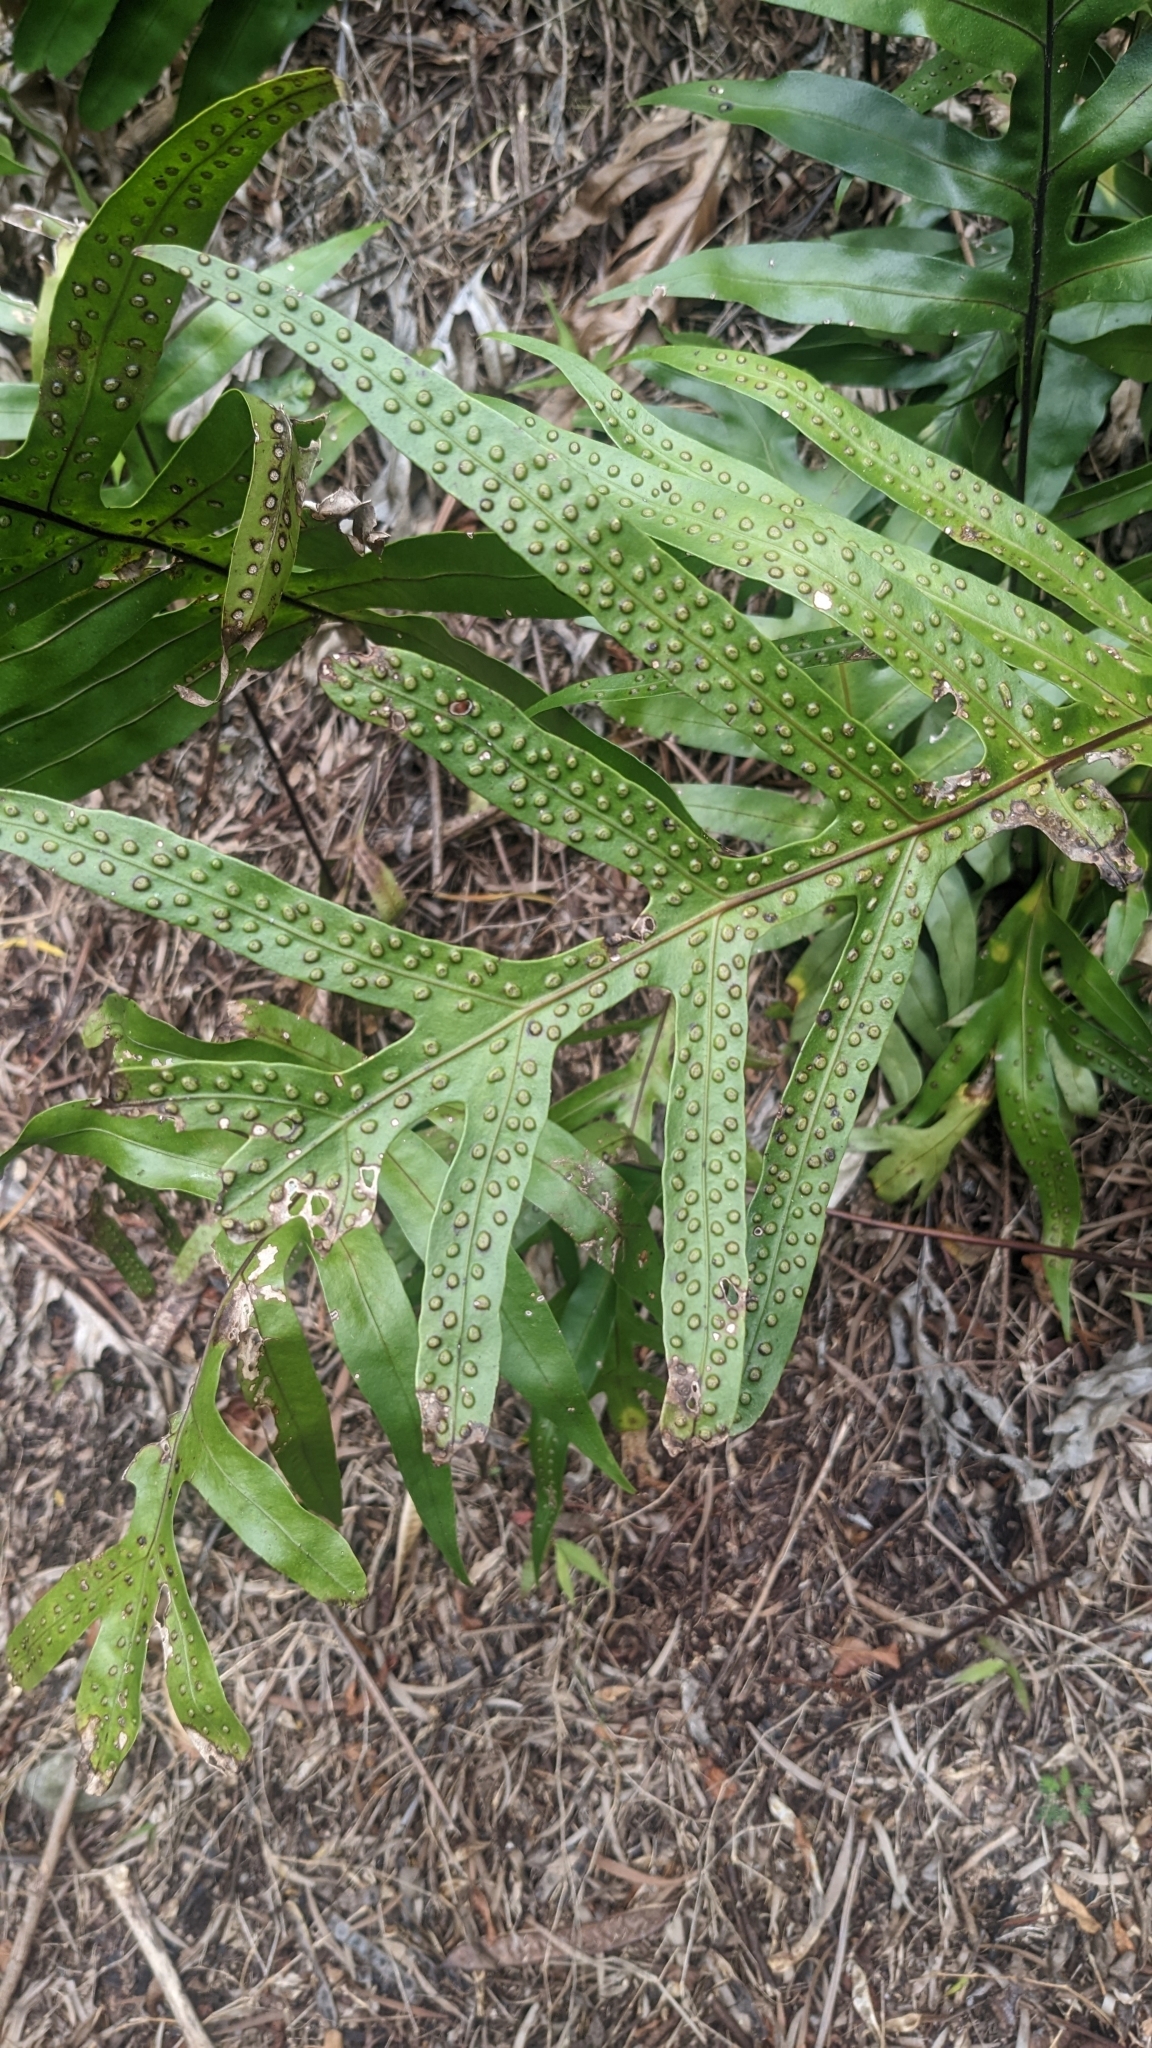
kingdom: Plantae
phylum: Tracheophyta
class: Polypodiopsida
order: Polypodiales
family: Polypodiaceae
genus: Microsorum
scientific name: Microsorum grossum
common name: Musk fern
